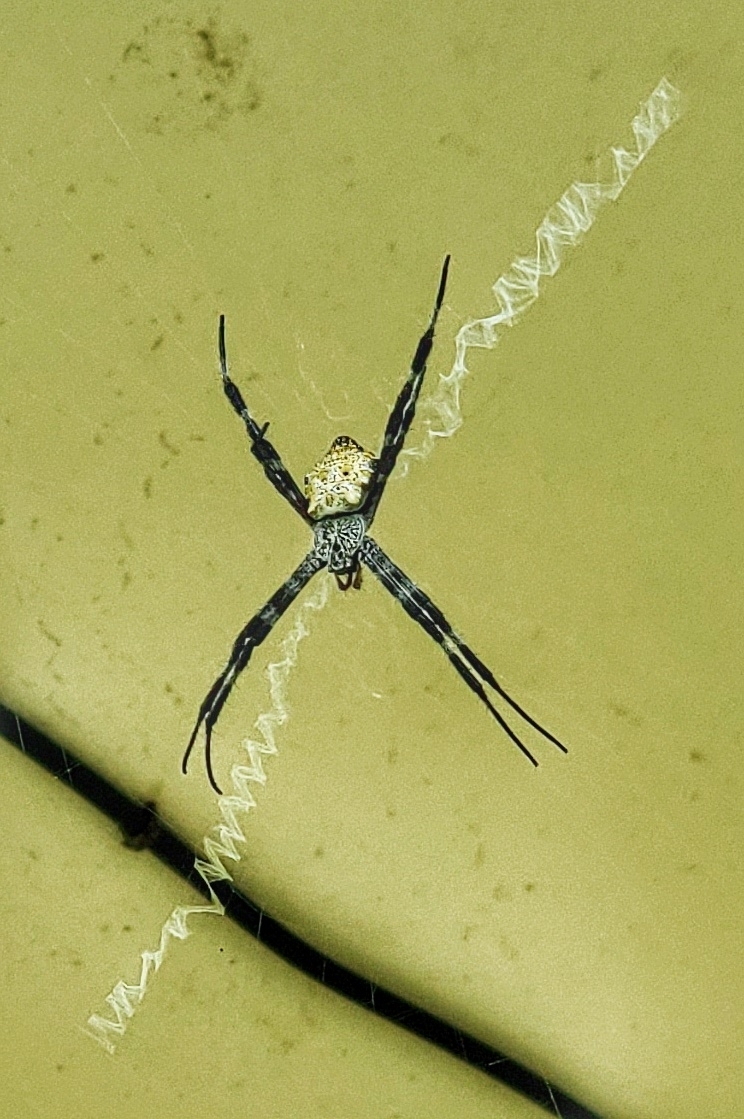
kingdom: Animalia
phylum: Arthropoda
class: Arachnida
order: Araneae
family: Araneidae
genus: Argiope
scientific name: Argiope appensa
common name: Garden spider
